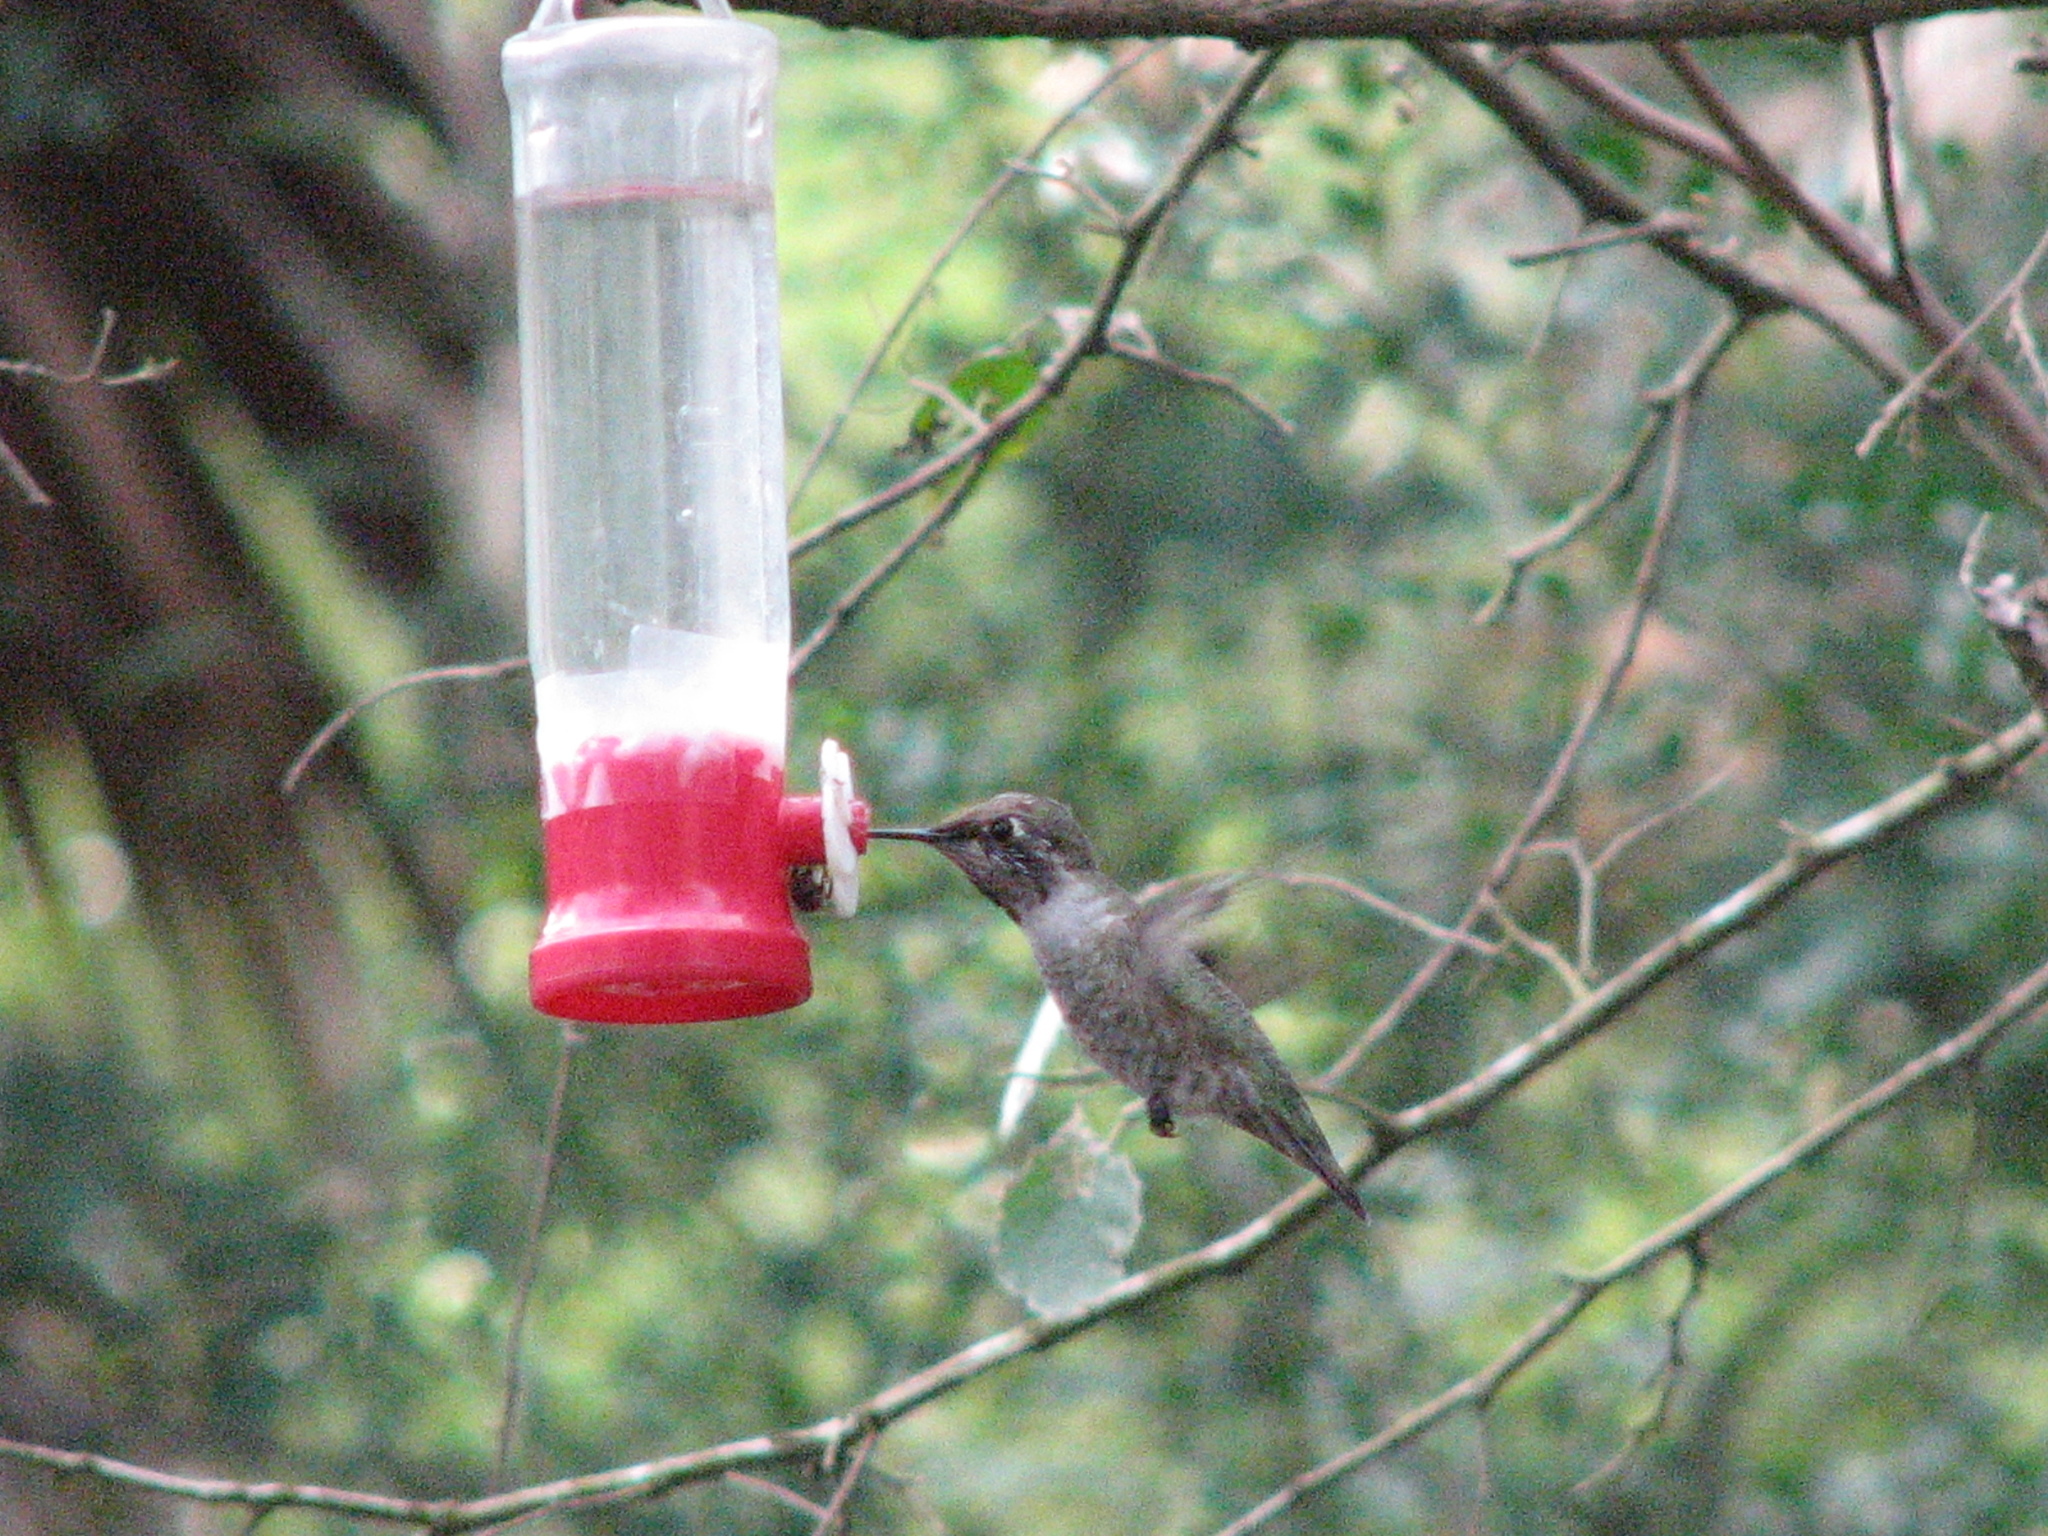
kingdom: Animalia
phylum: Chordata
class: Aves
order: Apodiformes
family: Trochilidae
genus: Calypte
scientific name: Calypte anna
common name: Anna's hummingbird
